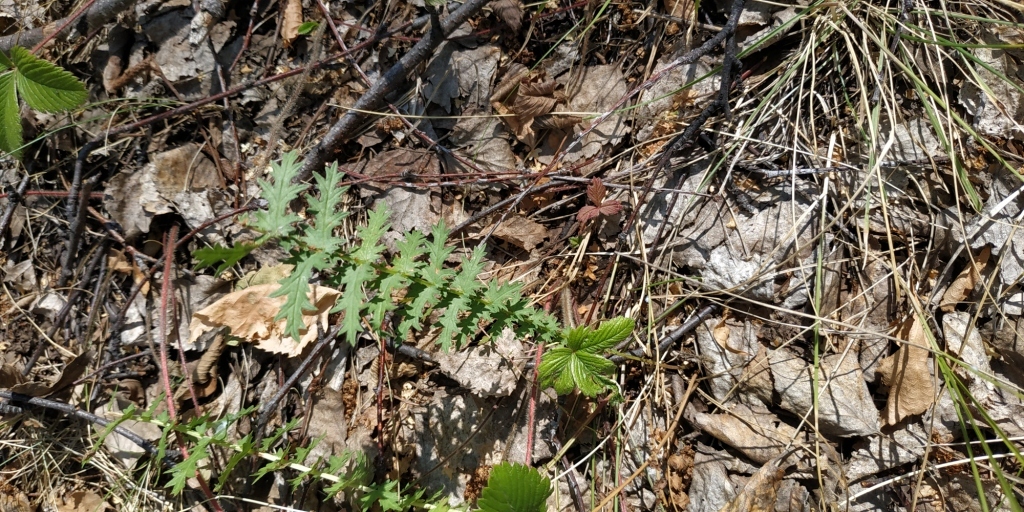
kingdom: Plantae
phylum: Tracheophyta
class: Magnoliopsida
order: Rosales
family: Rosaceae
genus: Filipendula
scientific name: Filipendula vulgaris
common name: Dropwort
